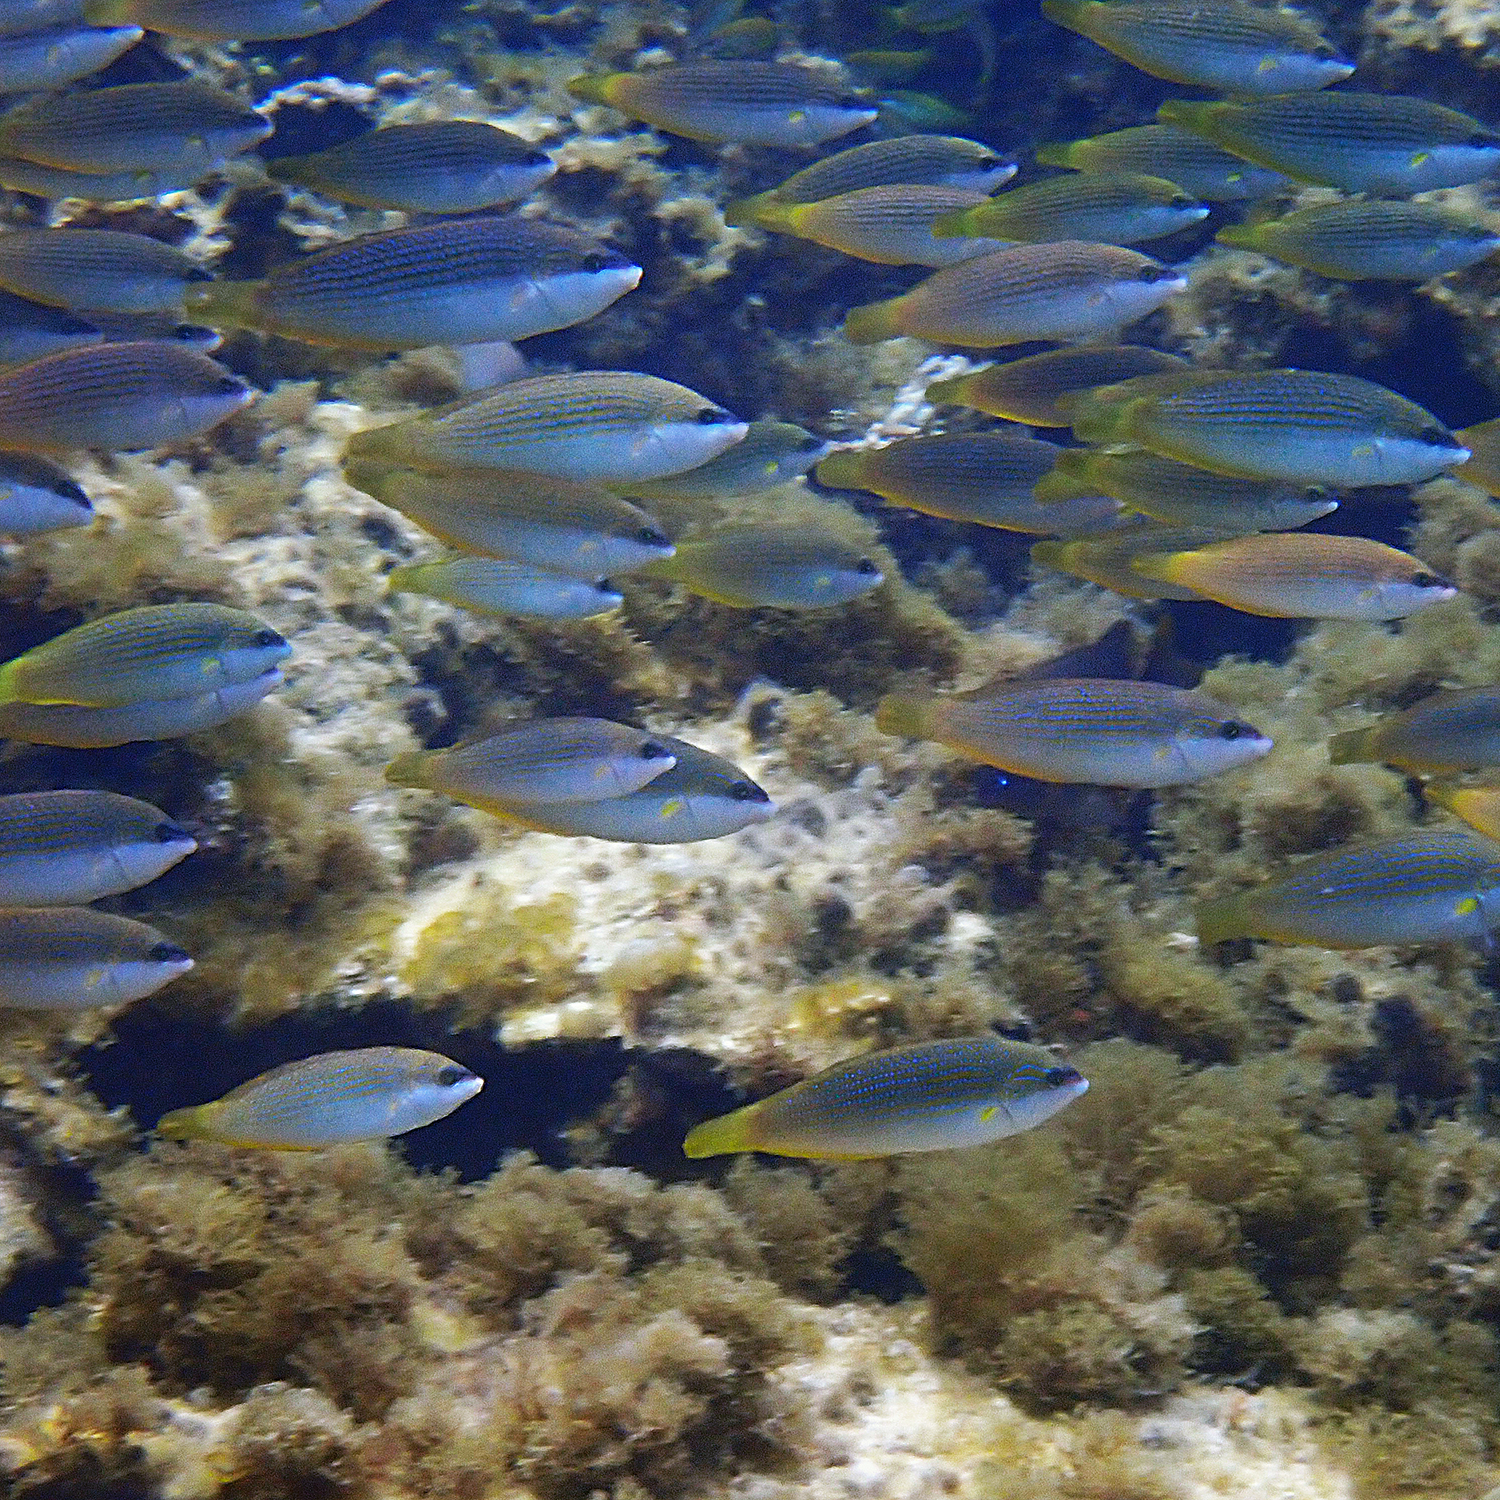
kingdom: Animalia
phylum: Chordata
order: Perciformes
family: Labridae
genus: Anampses
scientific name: Anampses elegans
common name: Elegant wrasse
